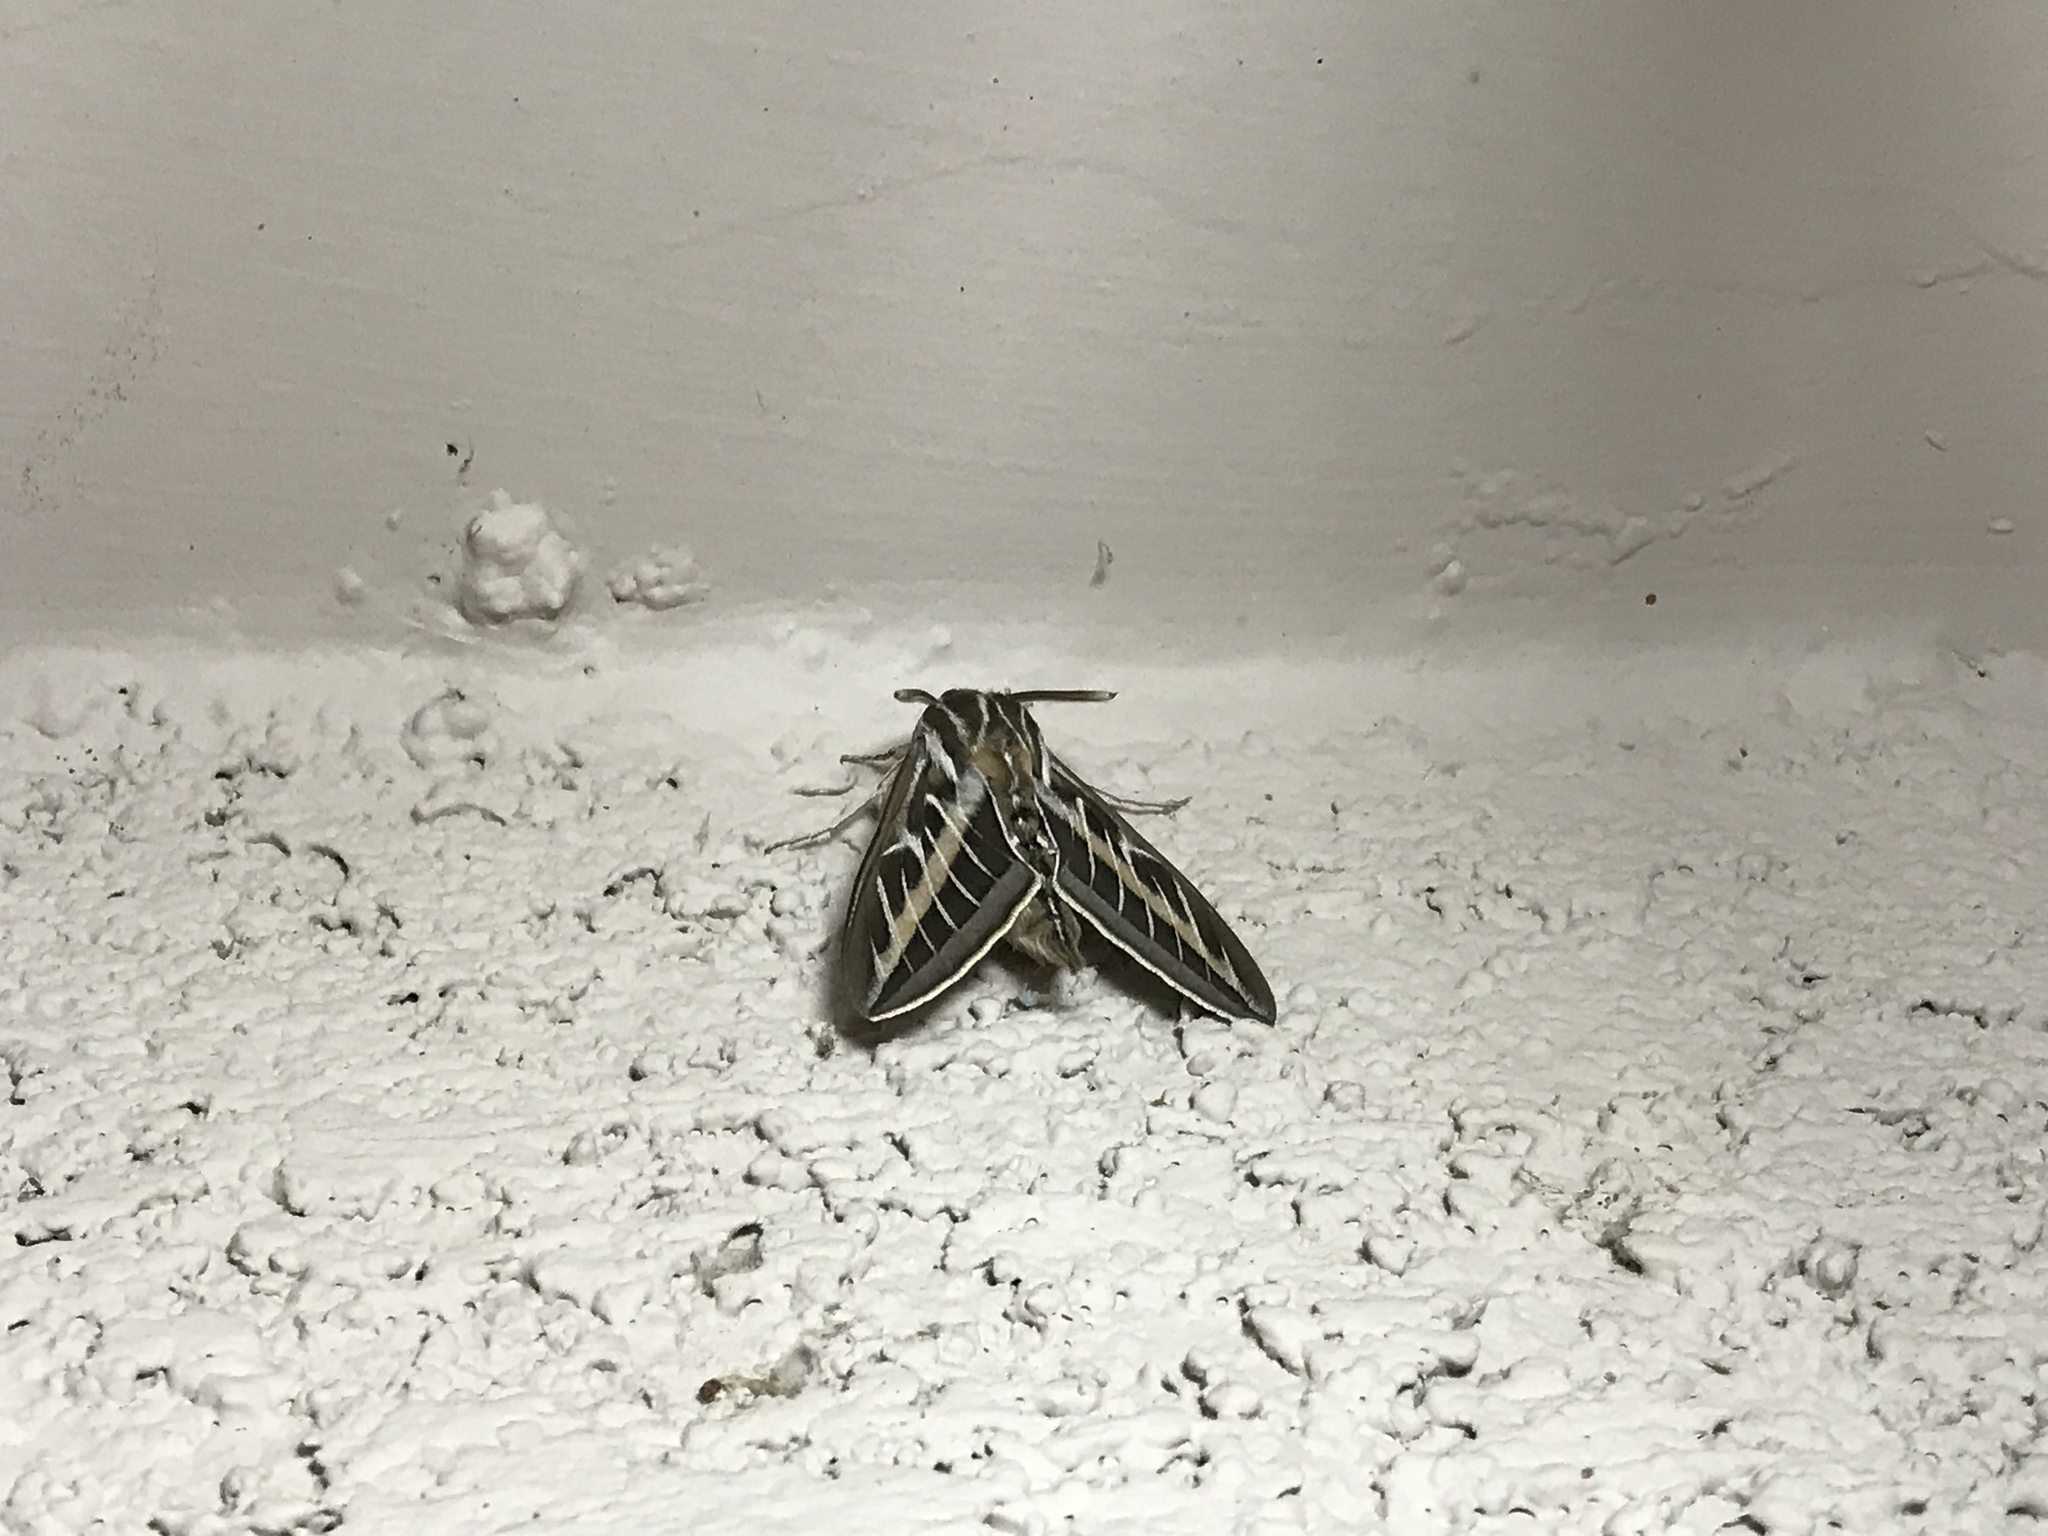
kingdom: Animalia
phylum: Arthropoda
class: Insecta
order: Lepidoptera
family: Sphingidae
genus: Hyles
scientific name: Hyles lineata
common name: White-lined sphinx
